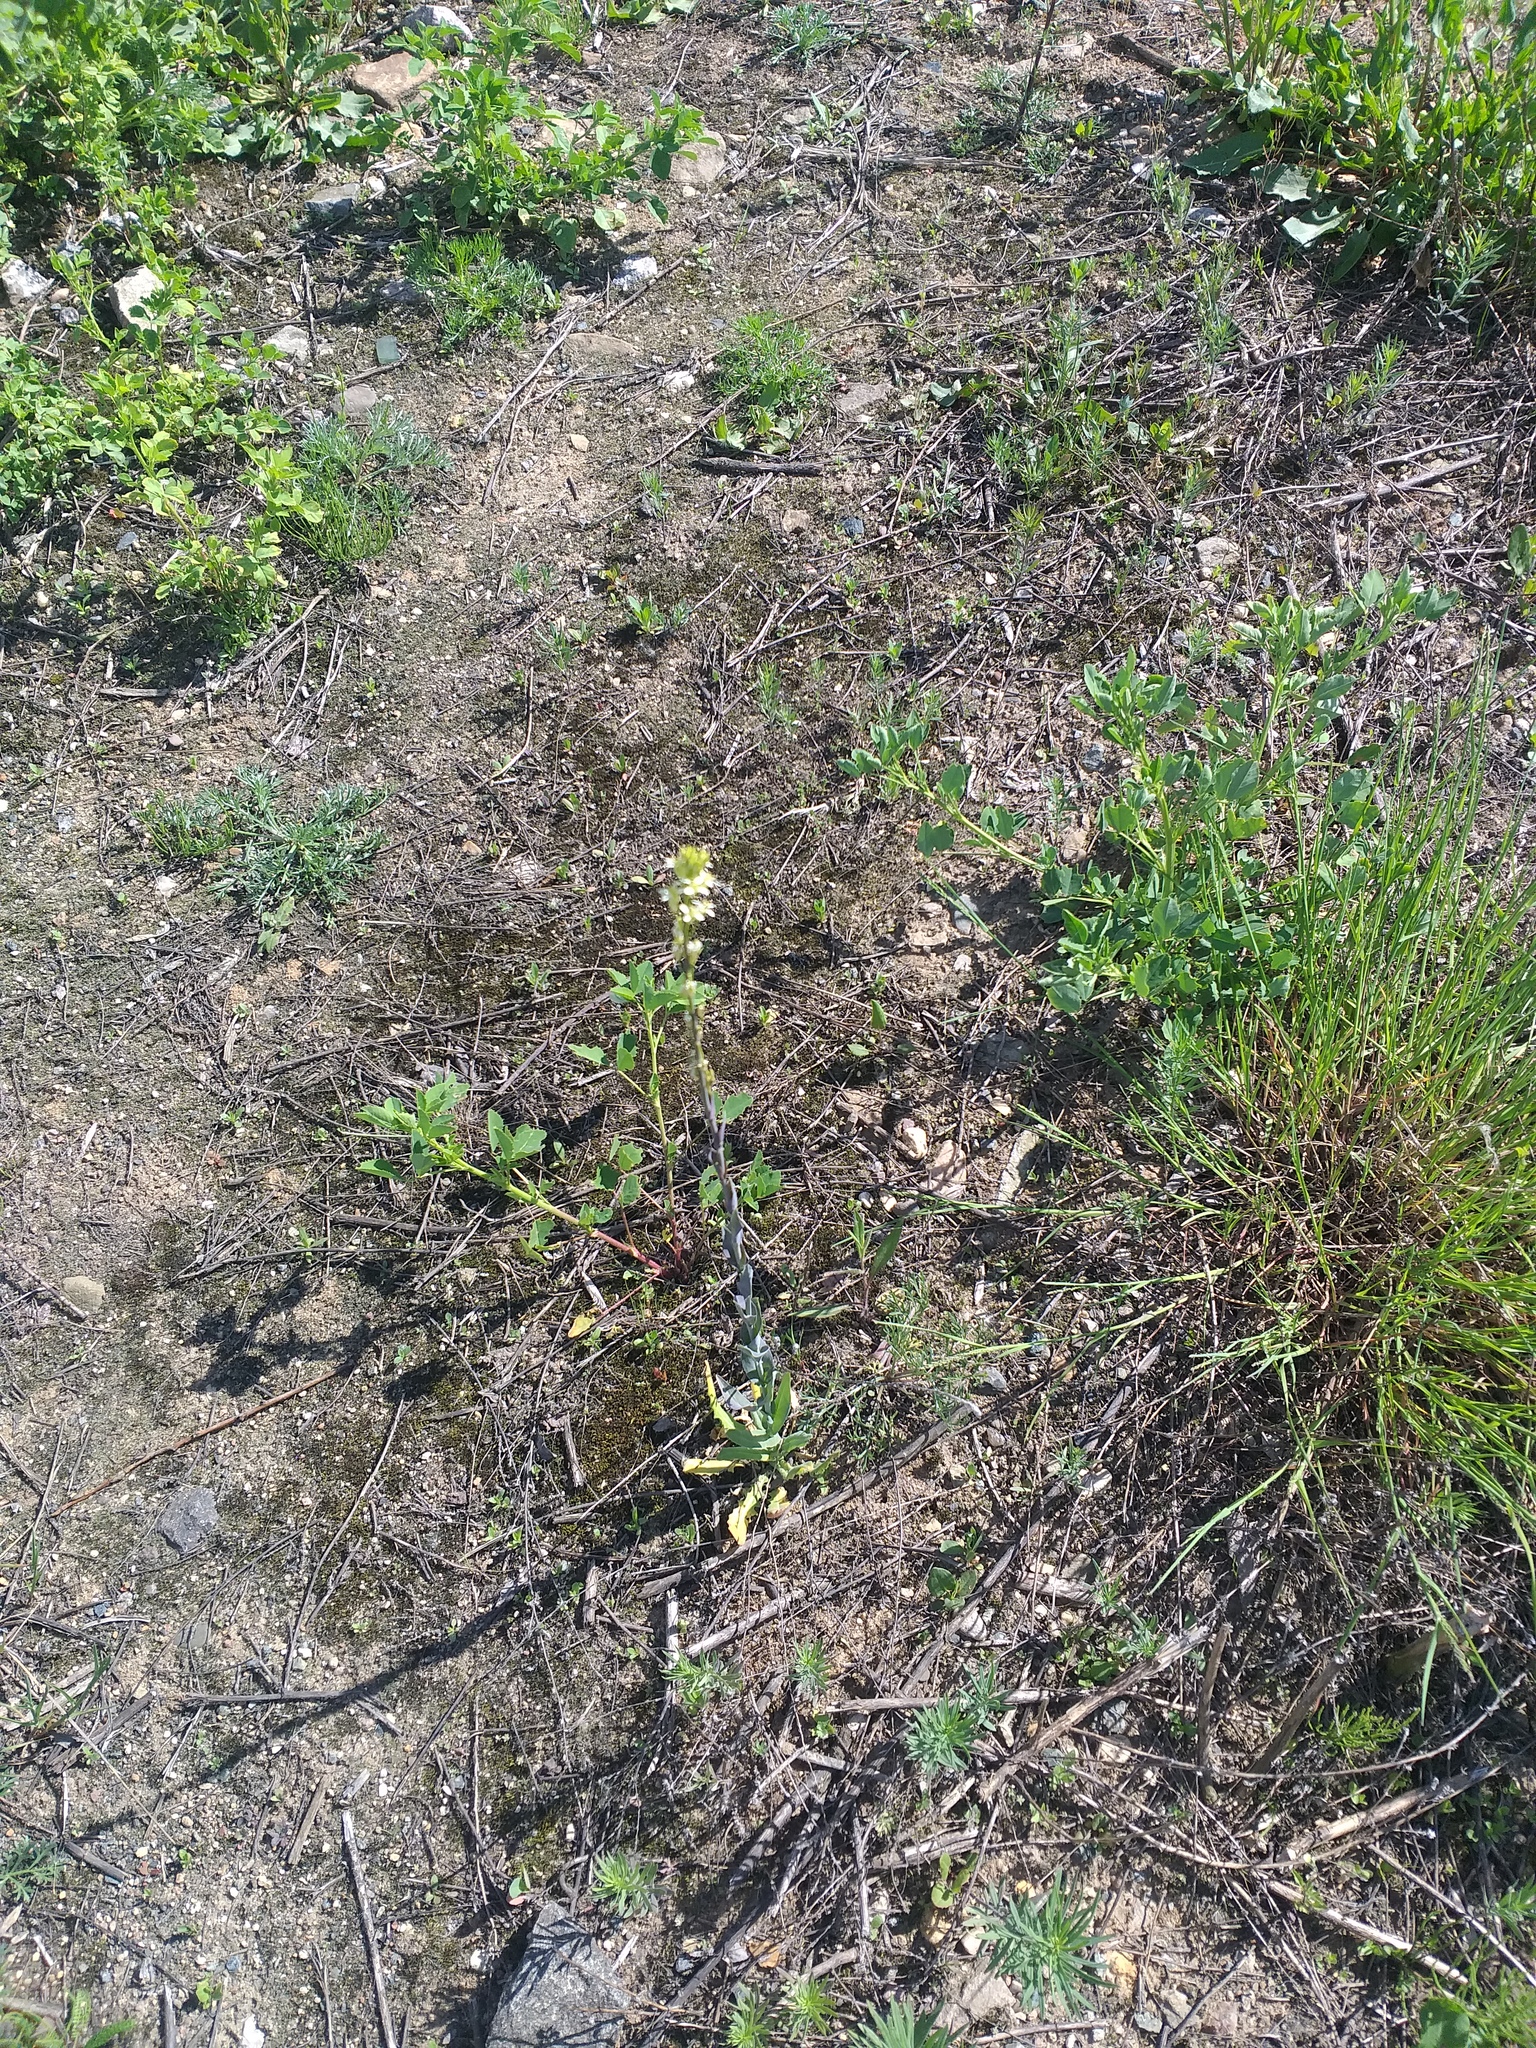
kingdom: Plantae
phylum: Tracheophyta
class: Magnoliopsida
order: Brassicales
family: Brassicaceae
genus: Turritis
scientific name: Turritis glabra
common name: Tower rockcress
